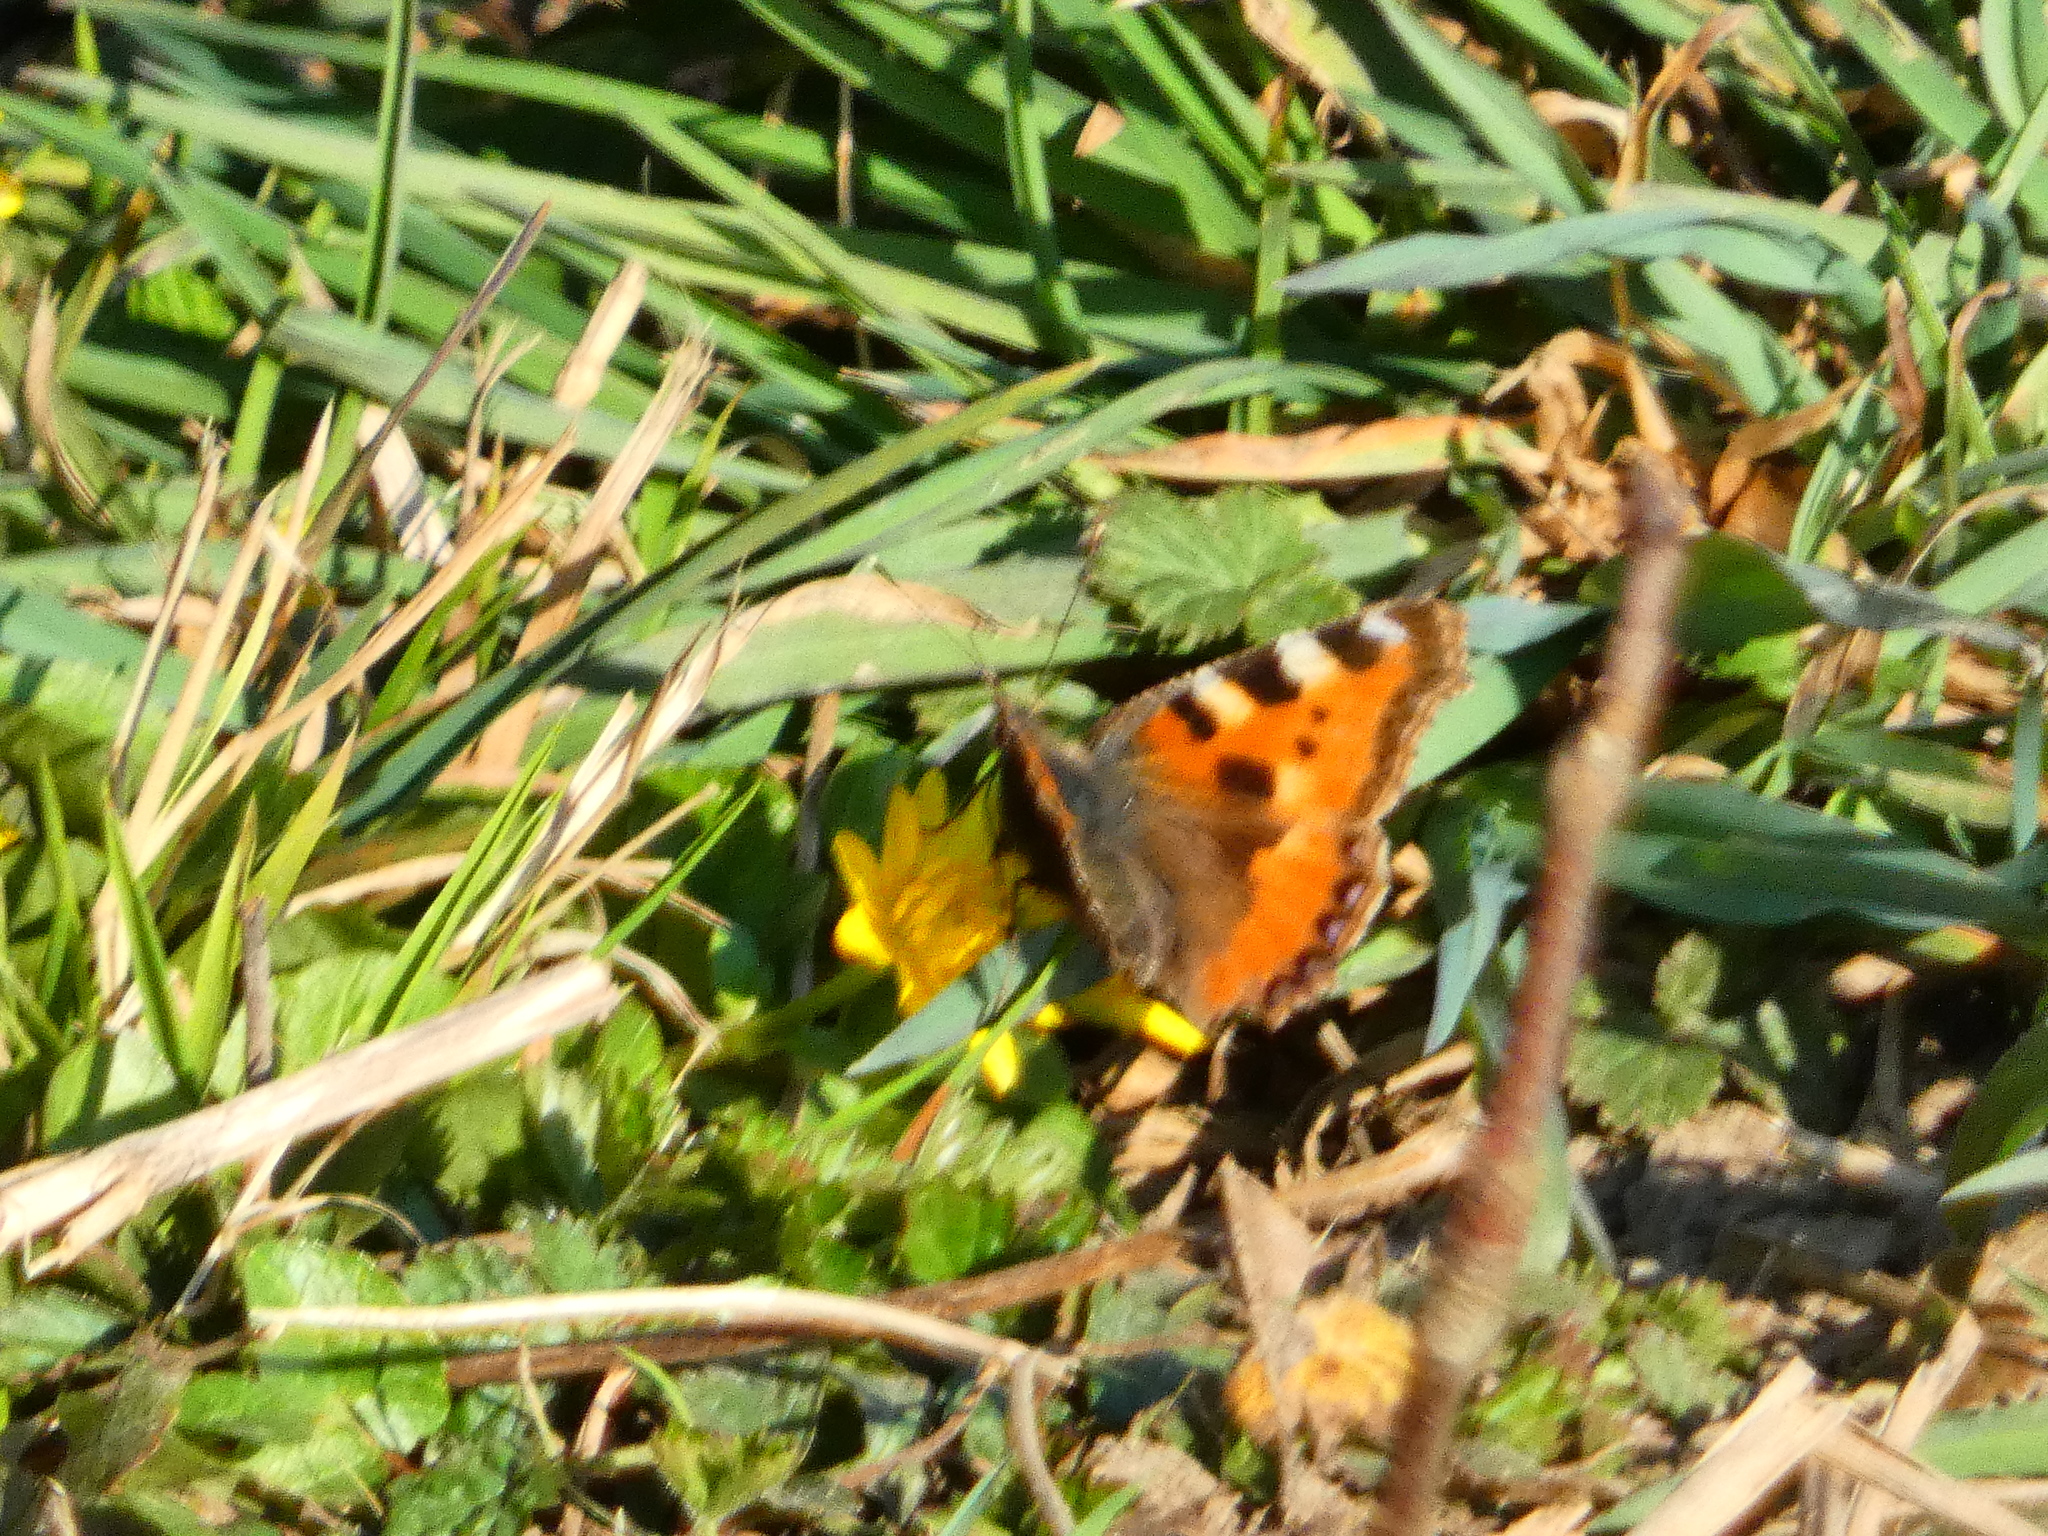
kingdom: Animalia
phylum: Arthropoda
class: Insecta
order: Lepidoptera
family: Nymphalidae
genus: Aglais
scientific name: Aglais urticae
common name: Small tortoiseshell
